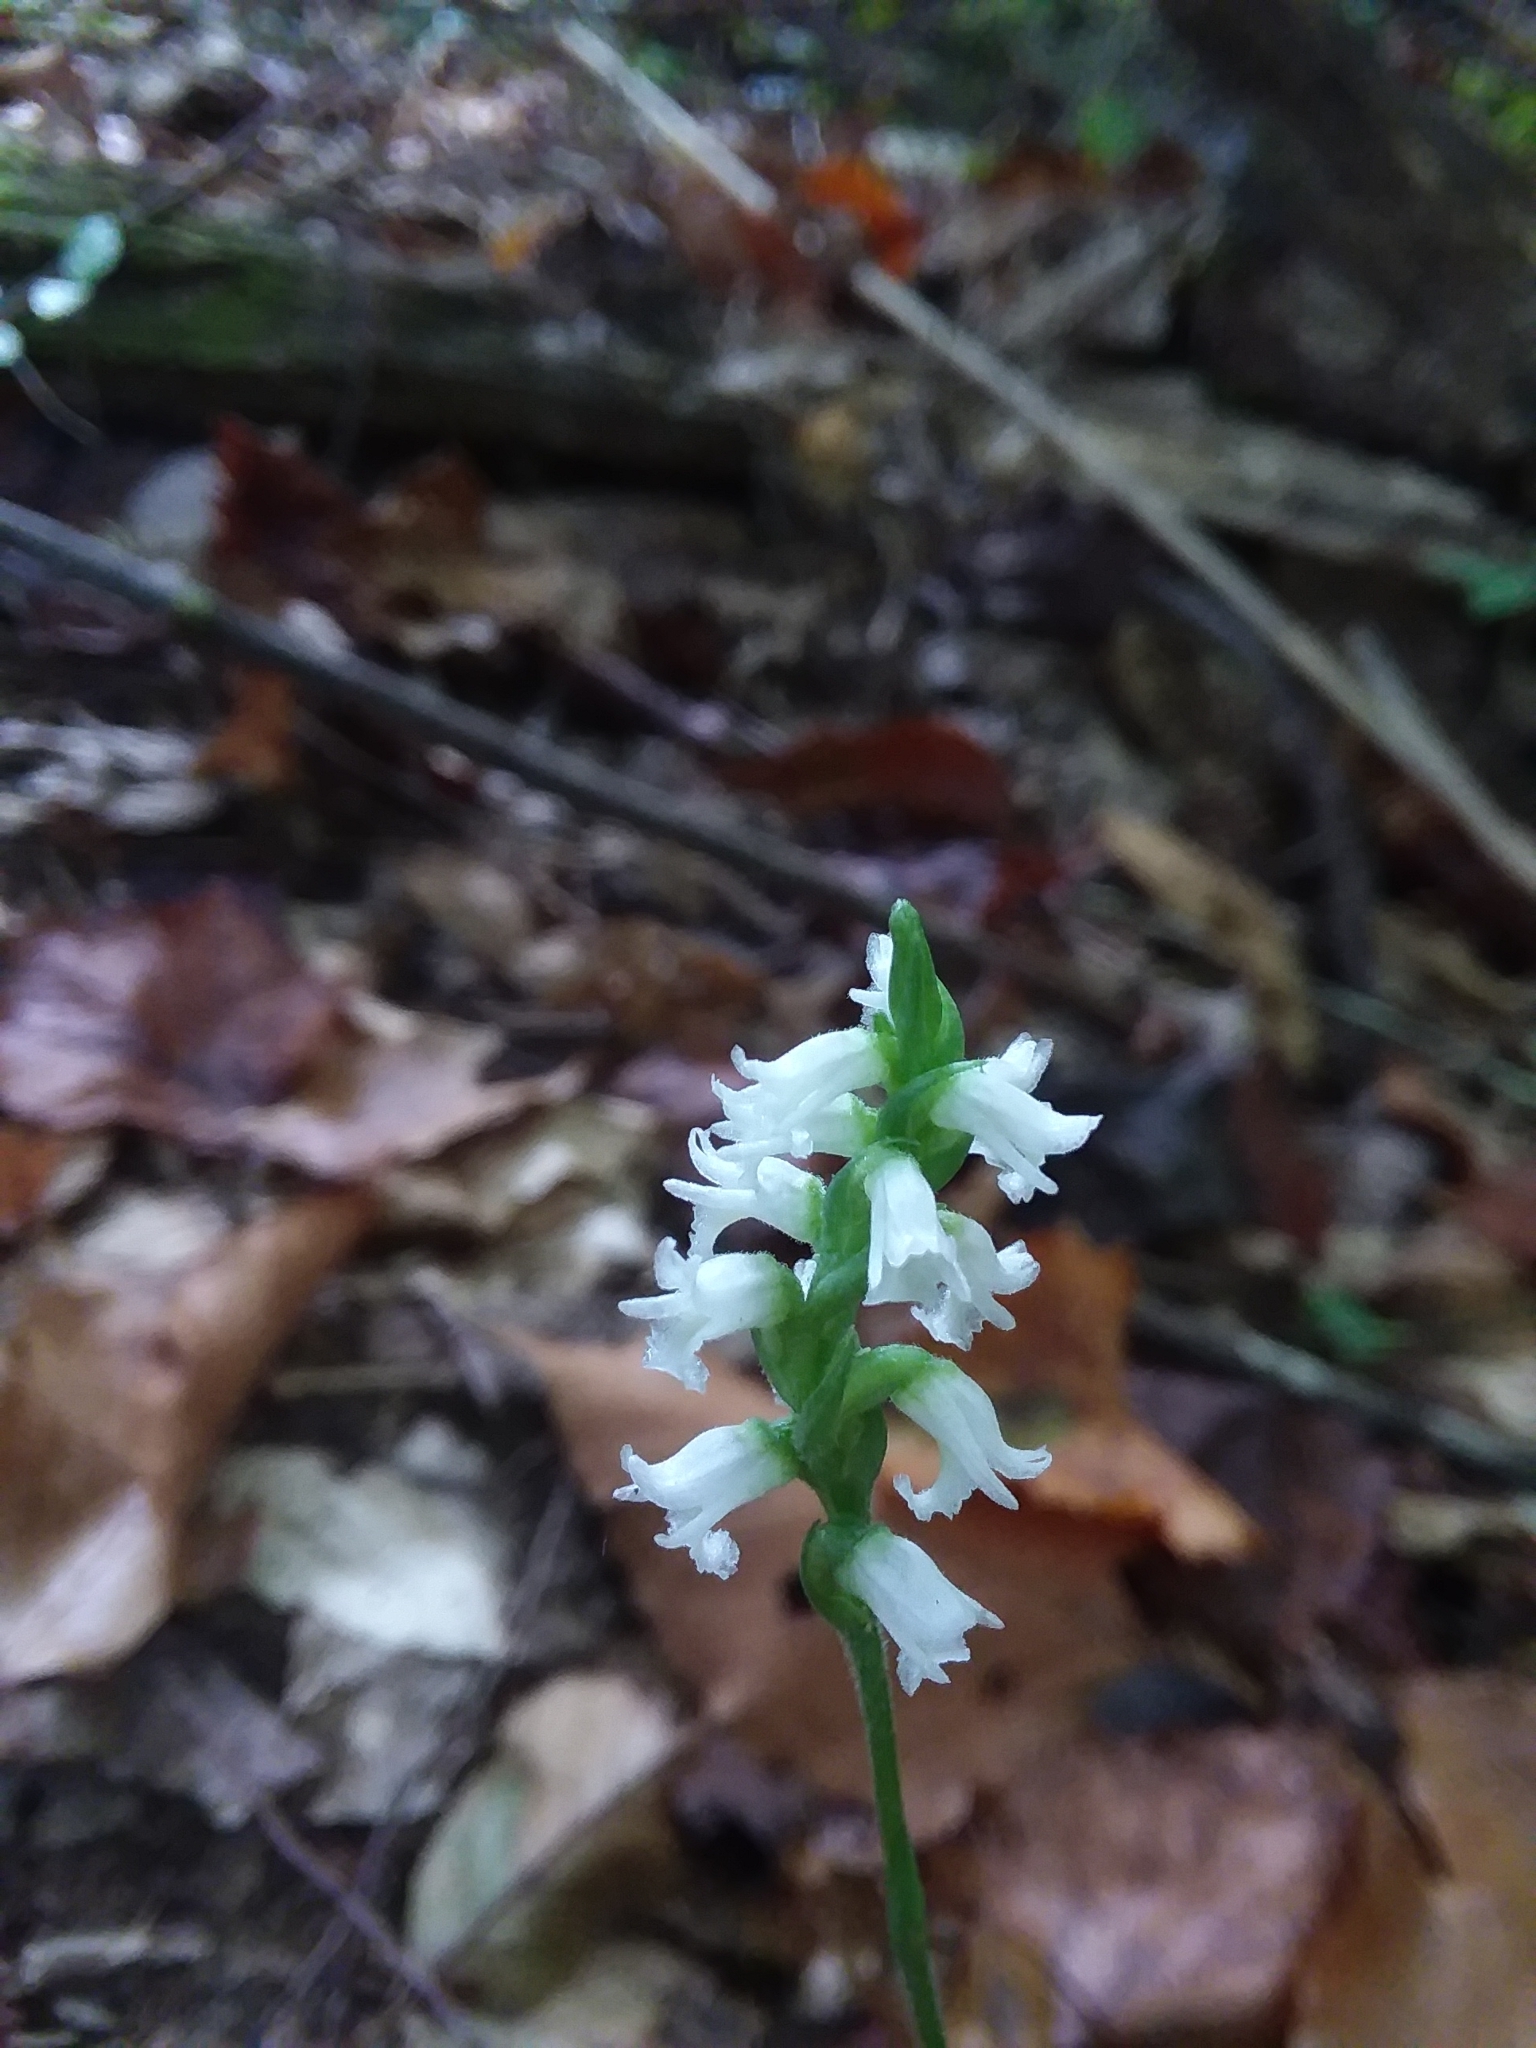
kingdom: Plantae
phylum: Tracheophyta
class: Liliopsida
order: Asparagales
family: Orchidaceae
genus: Spiranthes
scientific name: Spiranthes ovalis
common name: October ladies'-tresses
